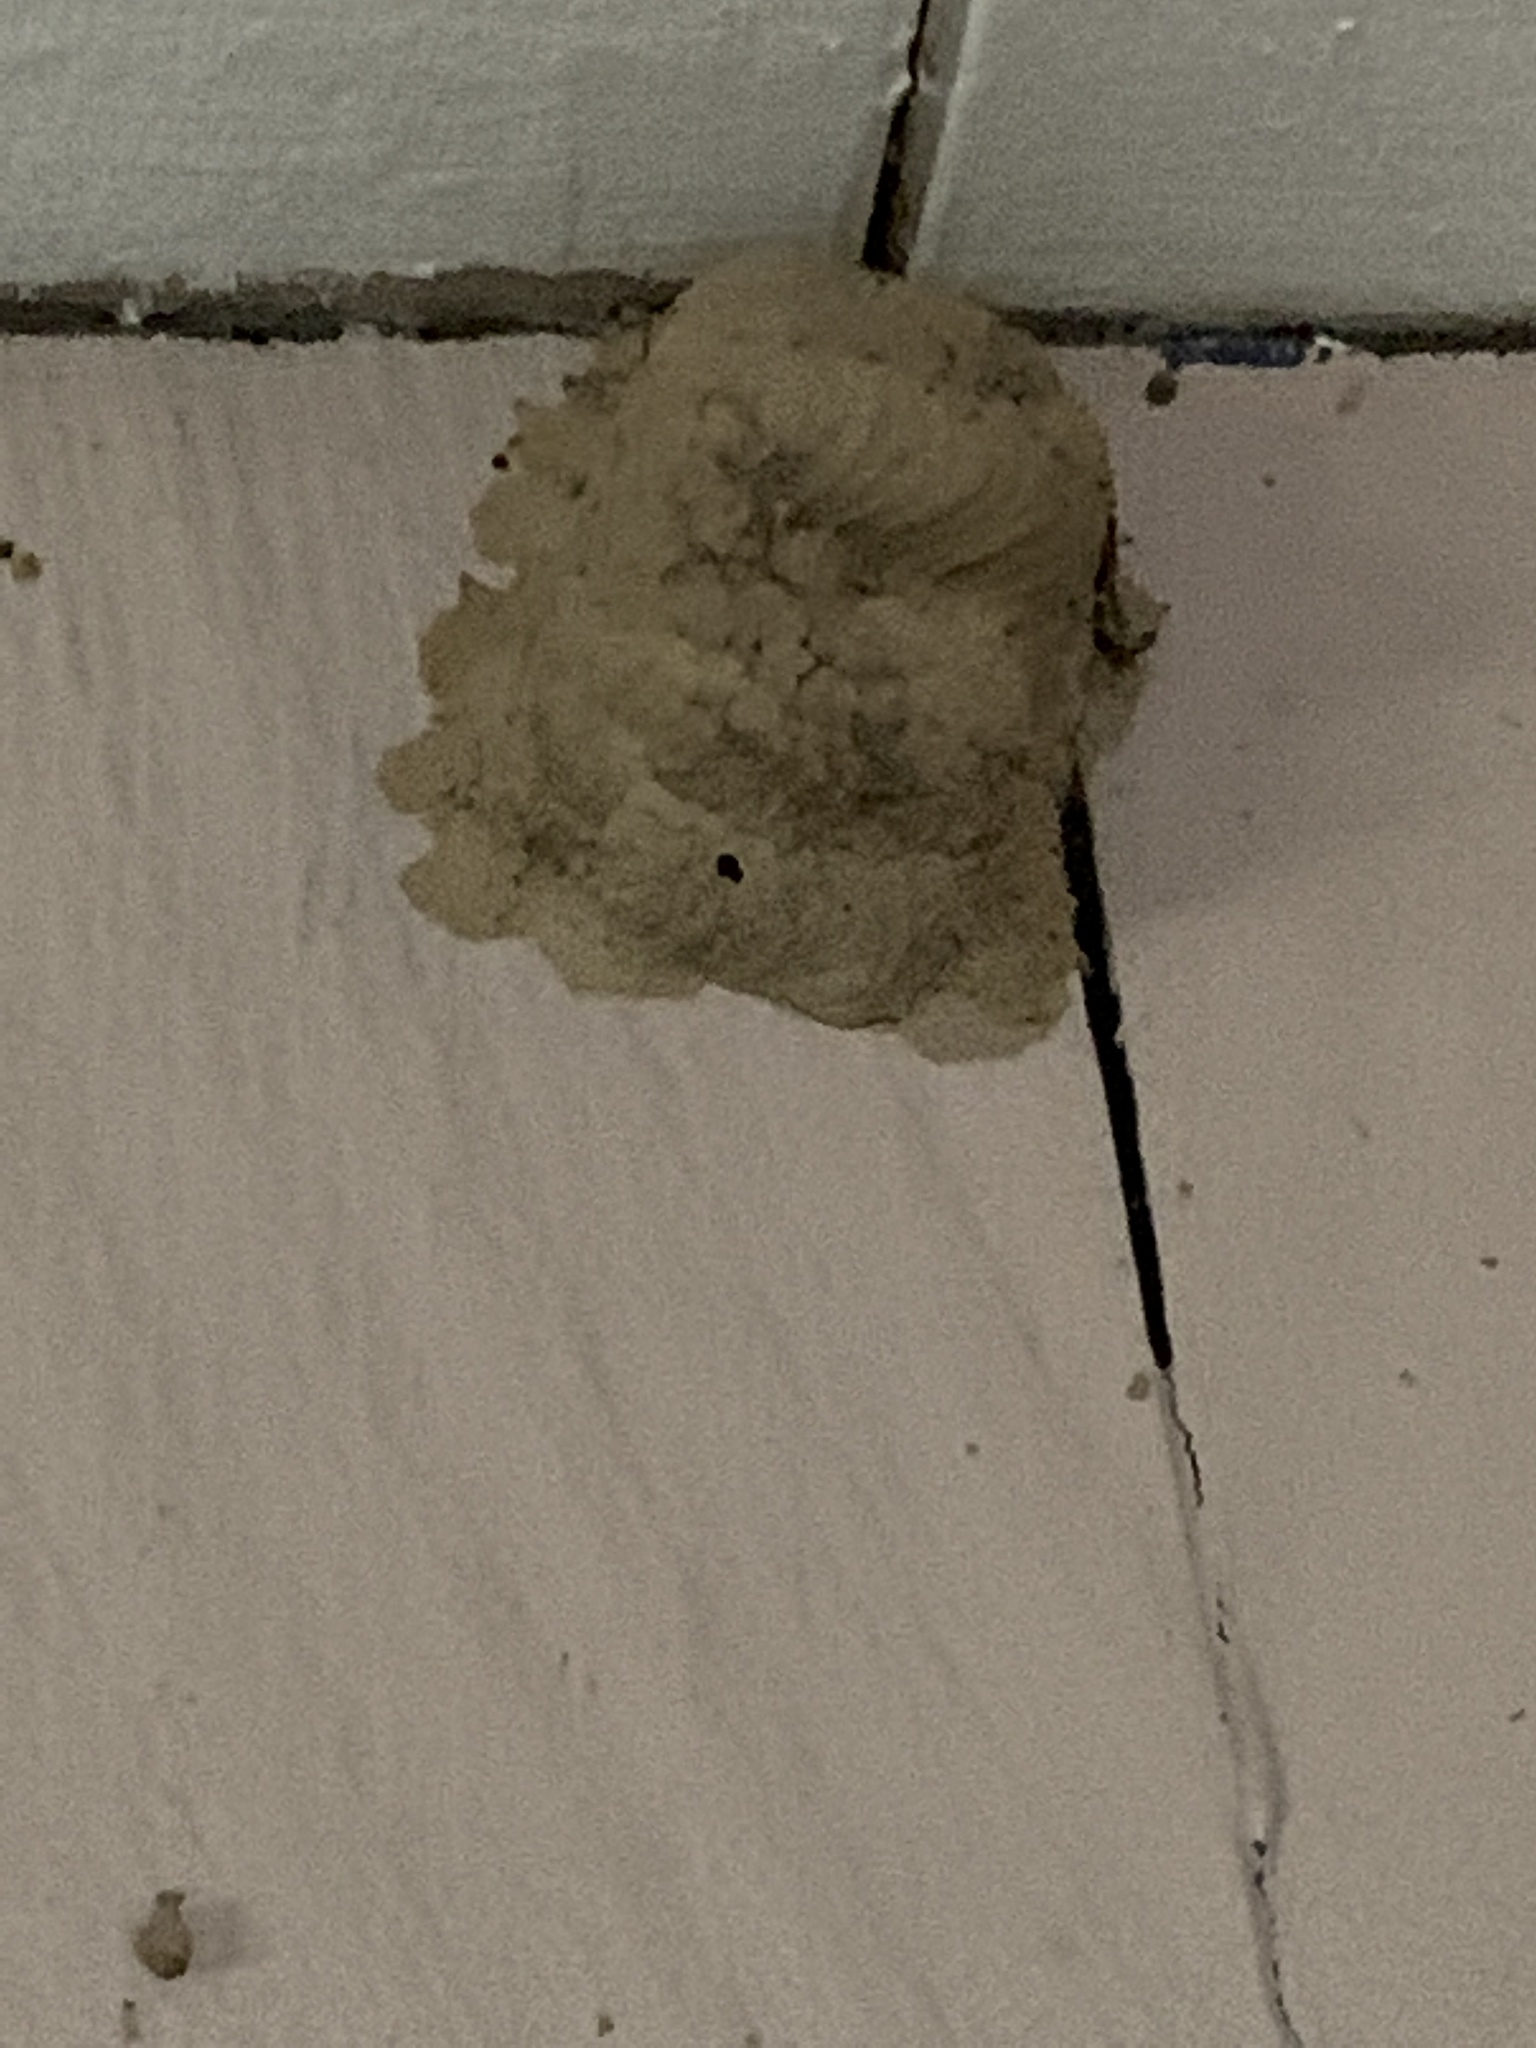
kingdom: Animalia
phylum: Arthropoda
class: Insecta
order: Hymenoptera
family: Sphecidae
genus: Sceliphron
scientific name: Sceliphron caementarium
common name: Mud dauber
